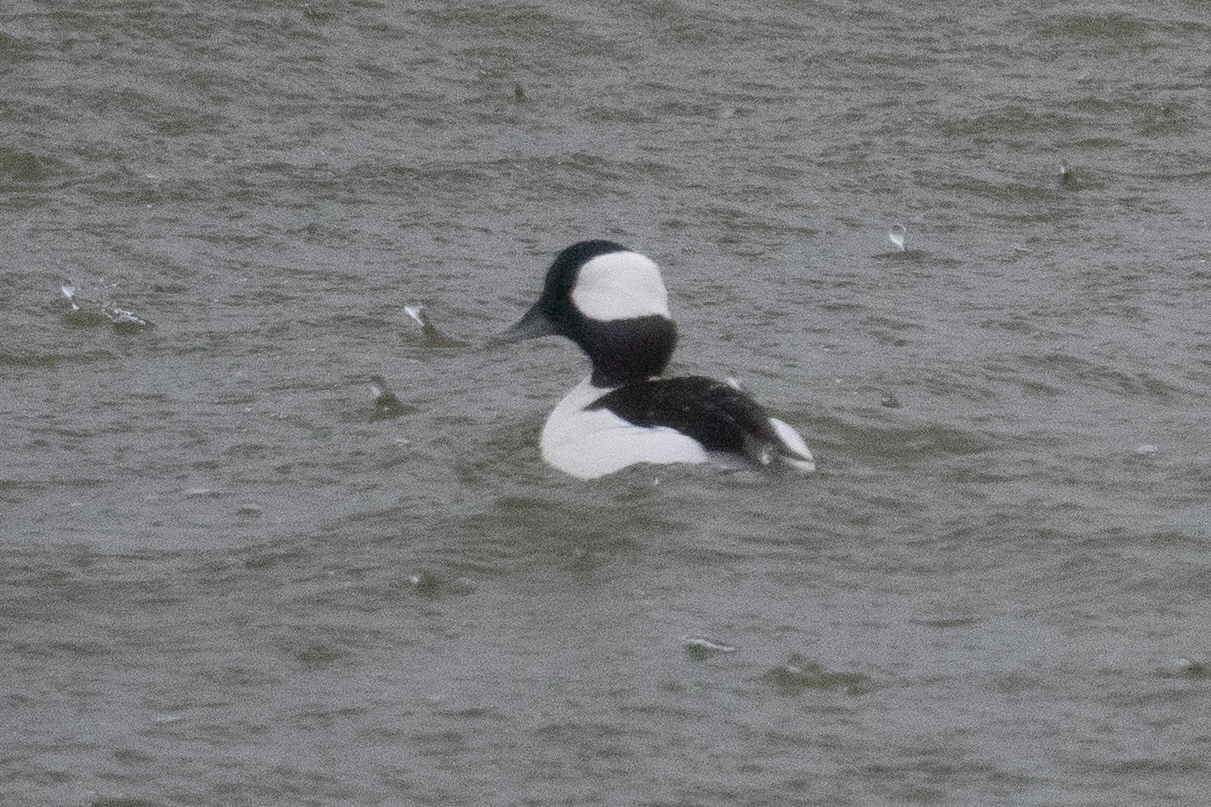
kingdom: Animalia
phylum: Chordata
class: Aves
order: Anseriformes
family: Anatidae
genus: Bucephala
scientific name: Bucephala albeola
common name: Bufflehead
